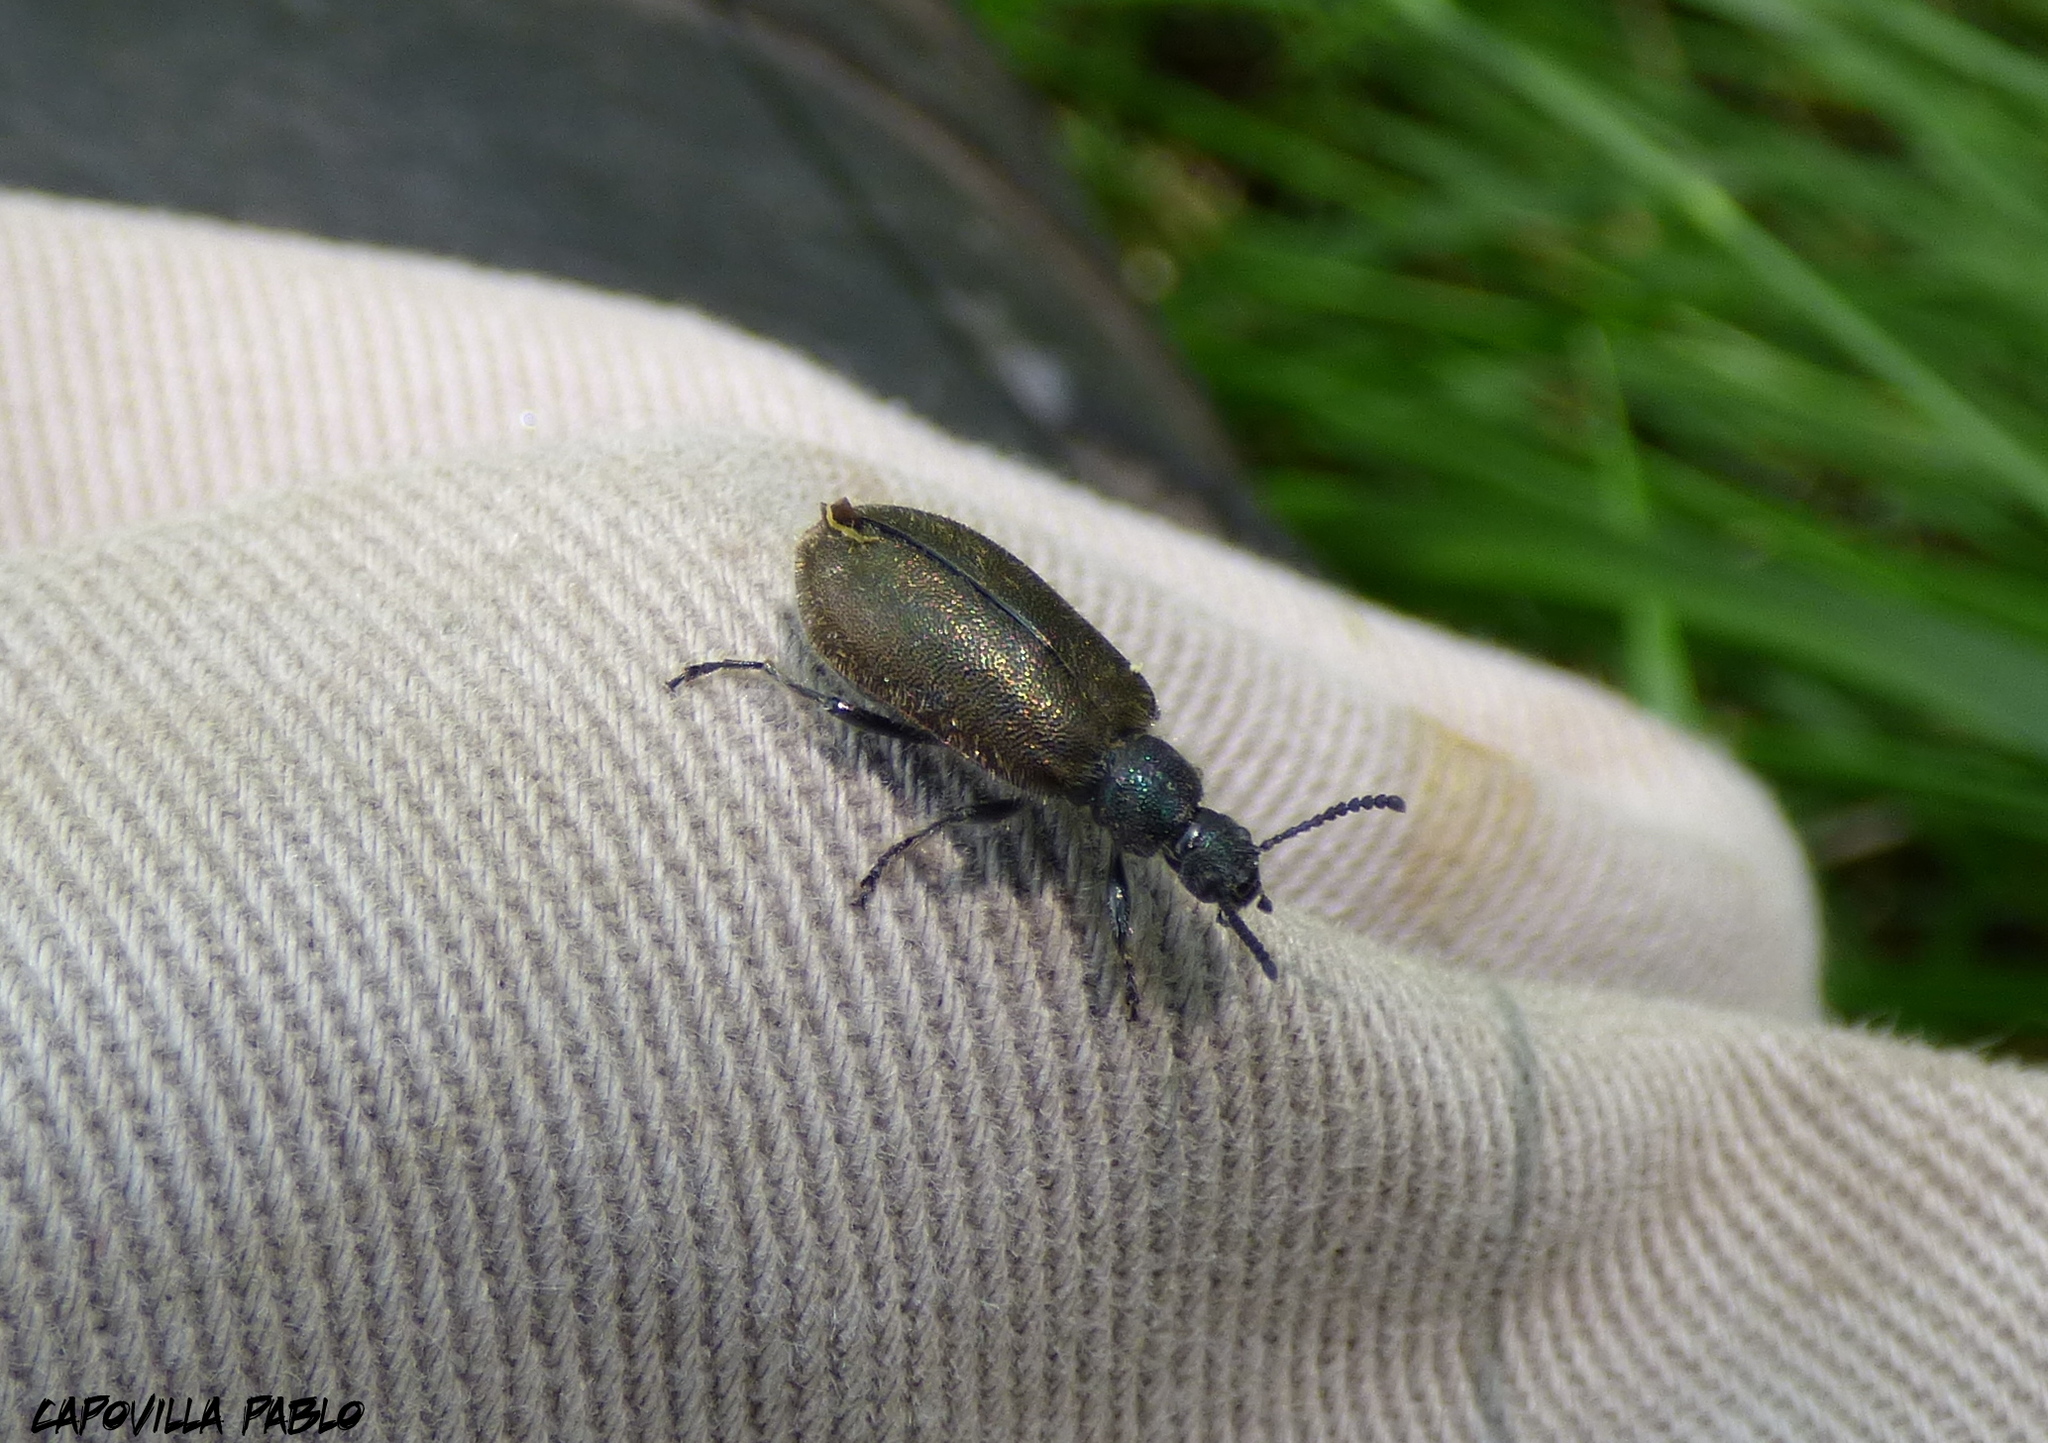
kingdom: Animalia
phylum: Arthropoda
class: Insecta
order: Coleoptera
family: Tenebrionidae
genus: Lagria
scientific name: Lagria villosa
